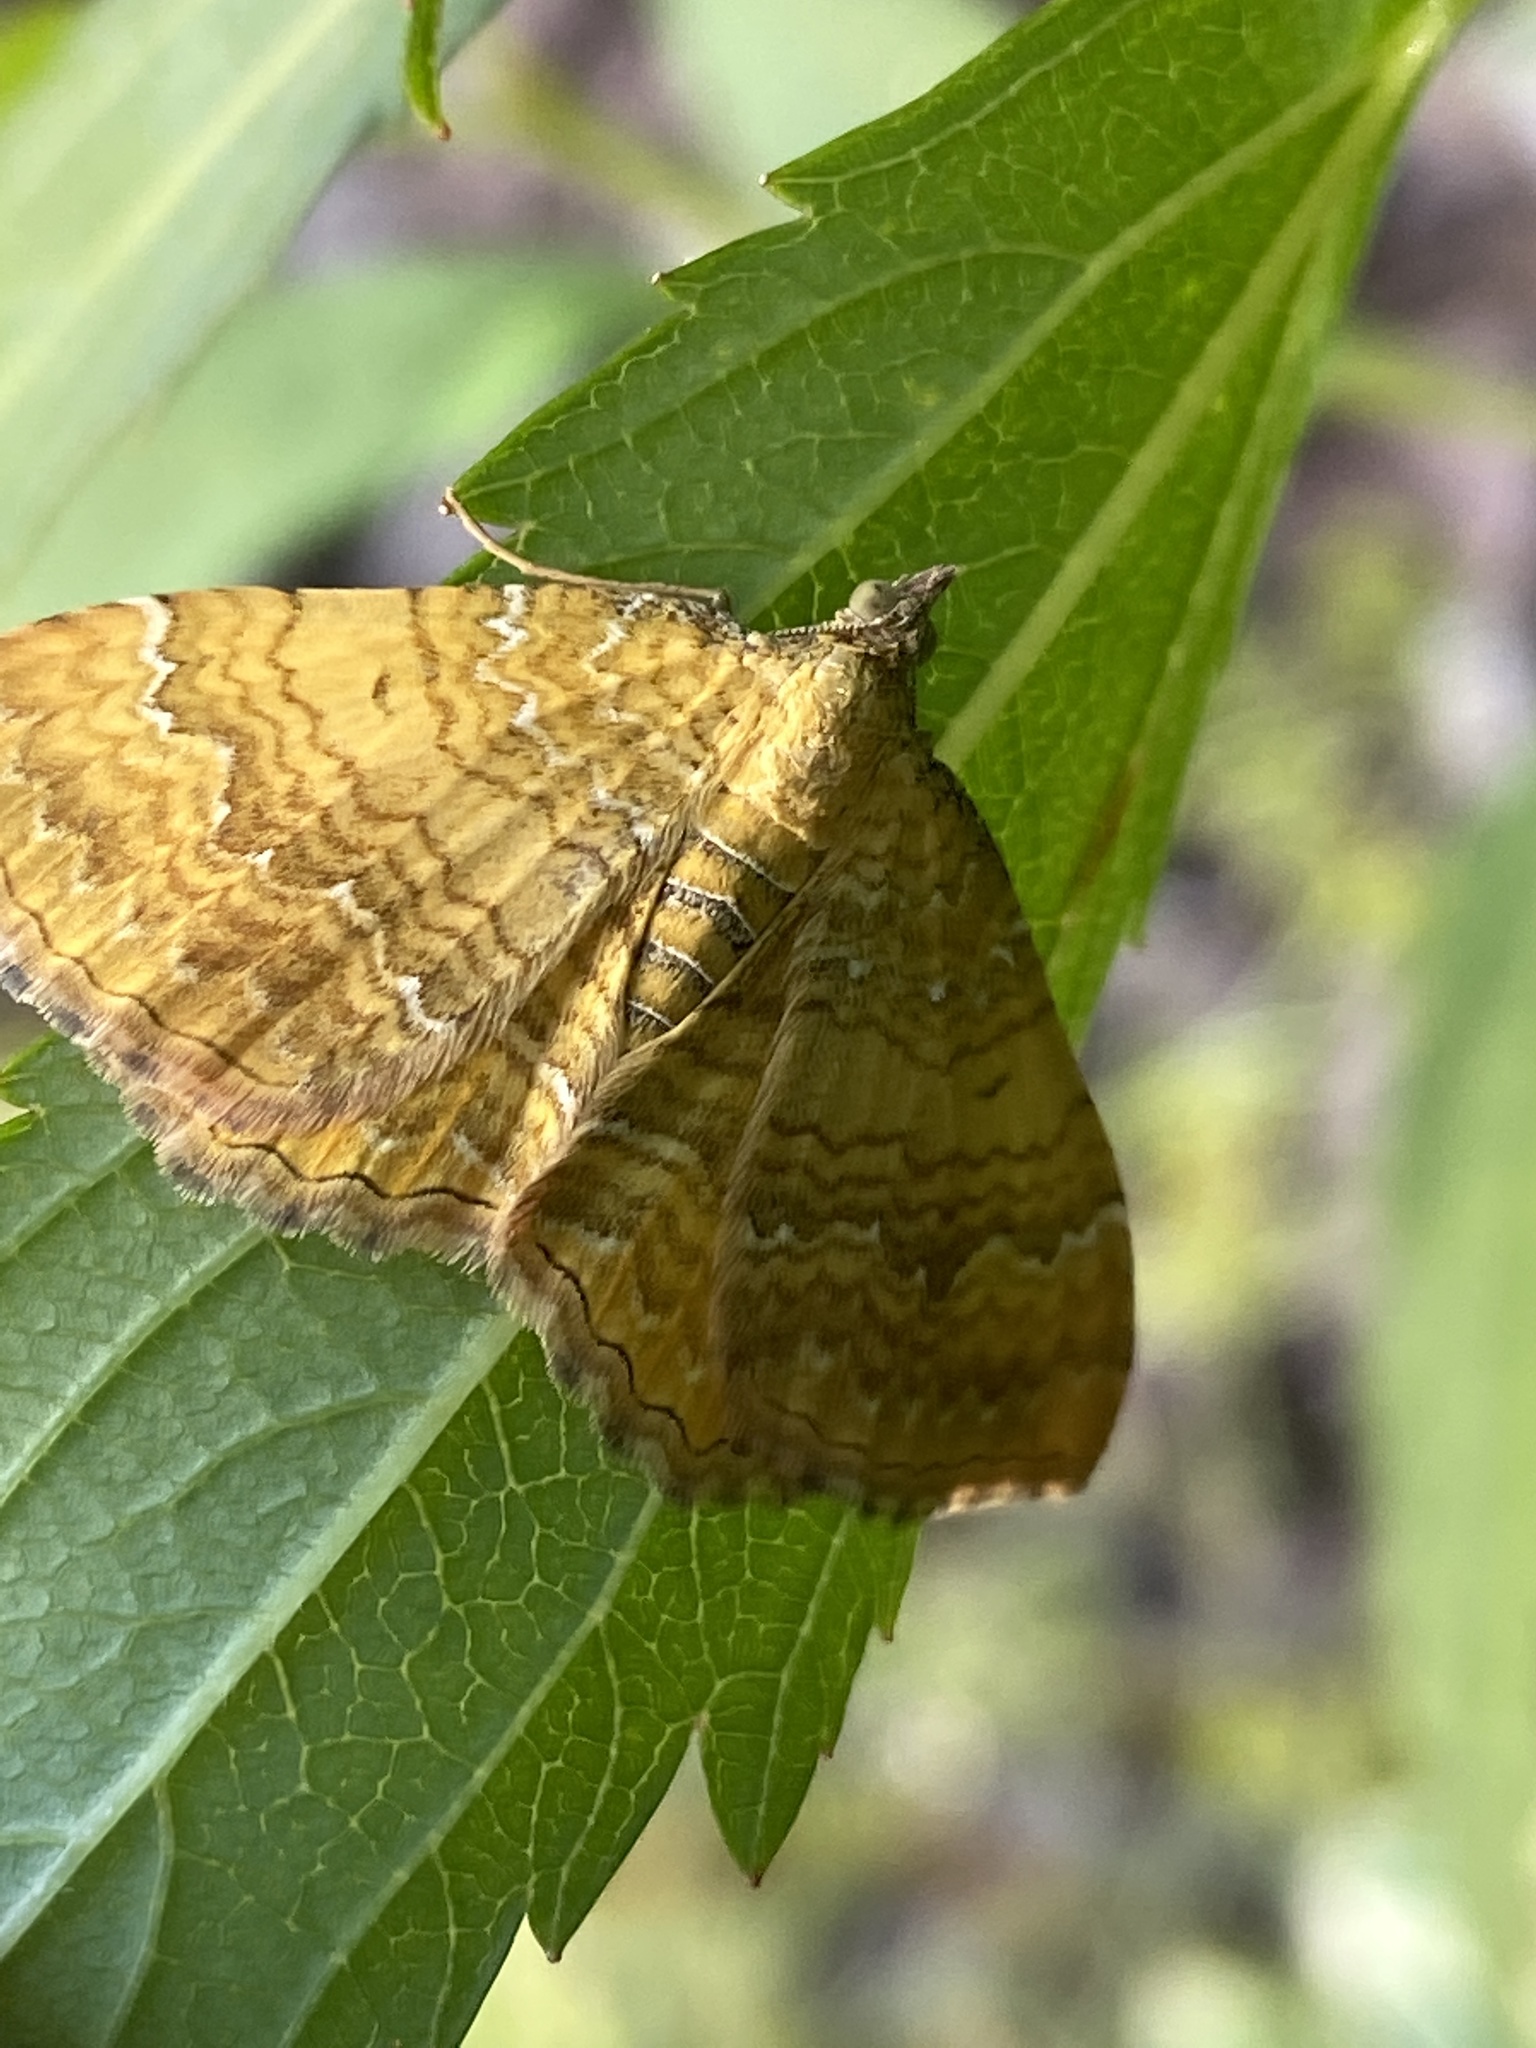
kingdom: Animalia
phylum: Arthropoda
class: Insecta
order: Lepidoptera
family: Geometridae
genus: Camptogramma
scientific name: Camptogramma bilineata
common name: Yellow shell
